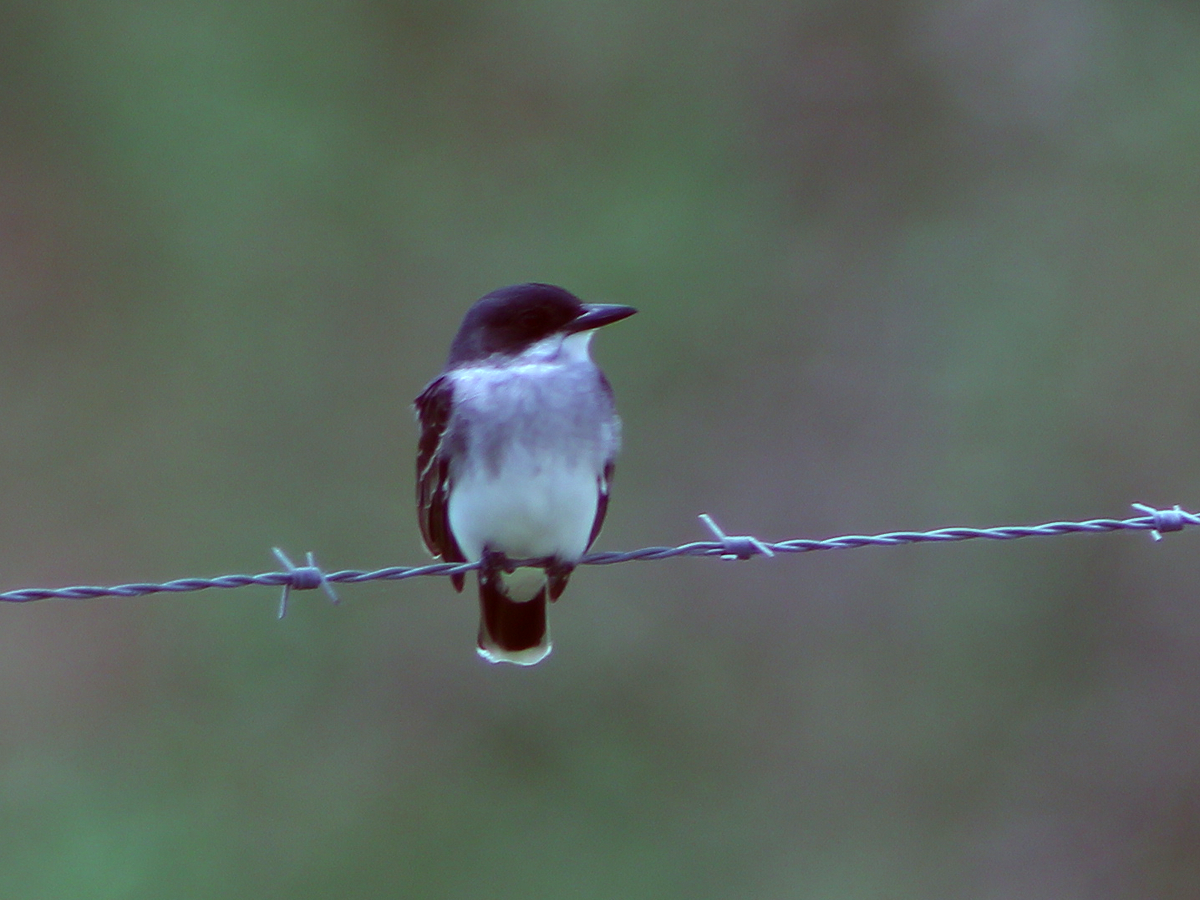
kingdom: Animalia
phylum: Chordata
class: Aves
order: Passeriformes
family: Tyrannidae
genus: Tyrannus
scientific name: Tyrannus tyrannus
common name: Eastern kingbird
